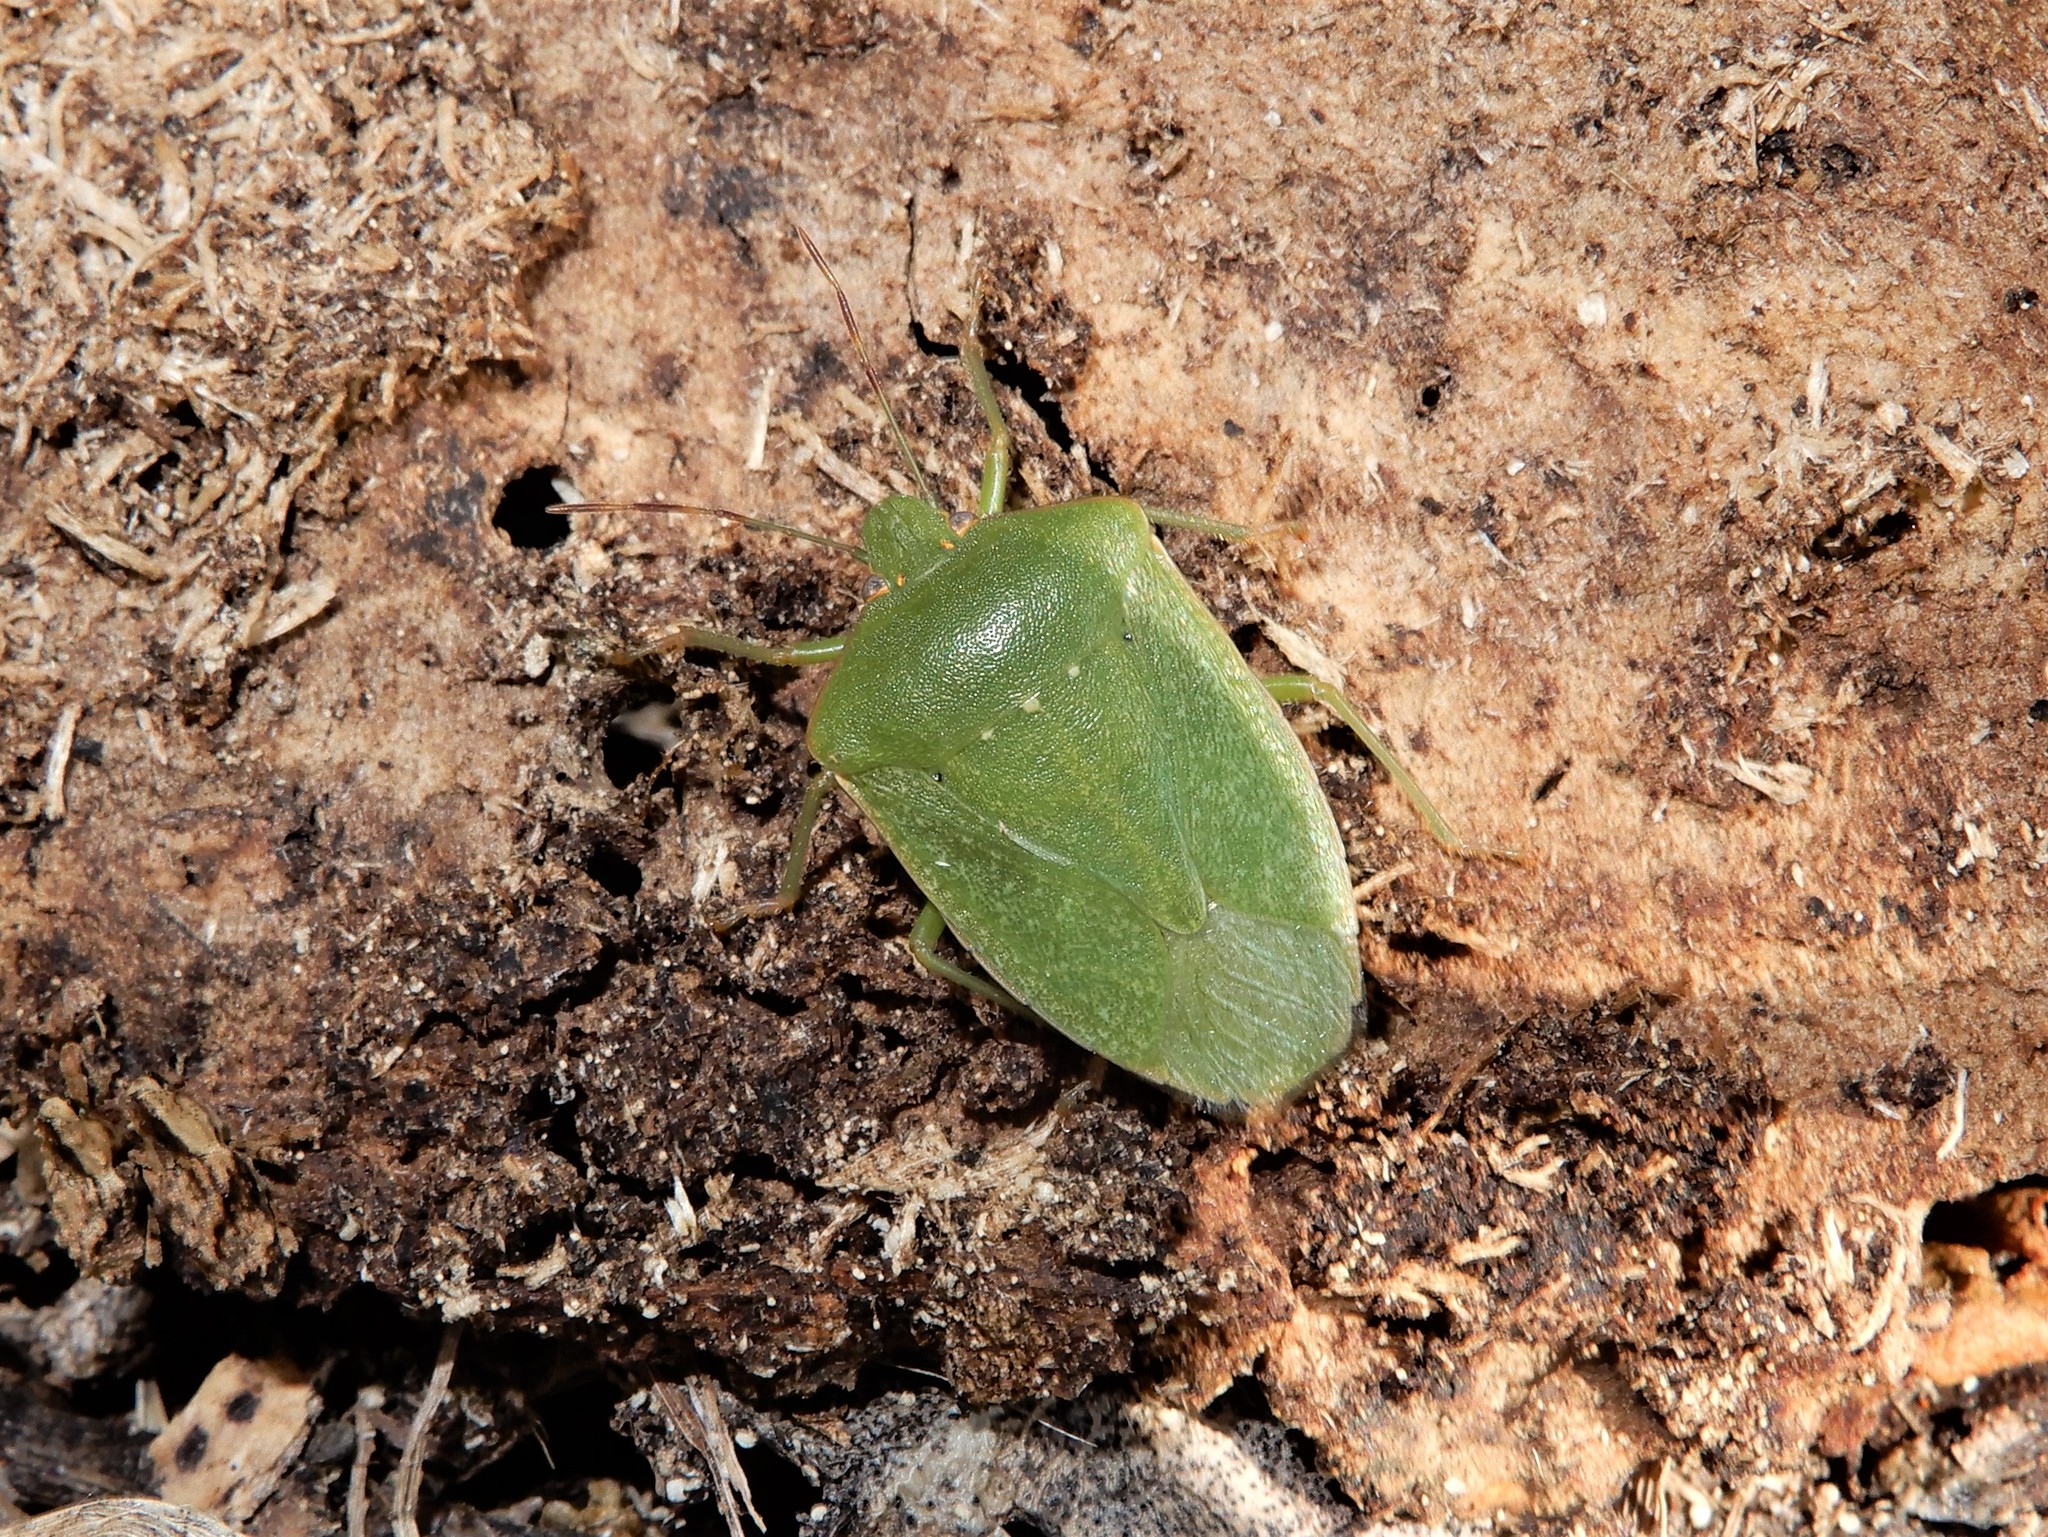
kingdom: Animalia
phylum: Arthropoda
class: Insecta
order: Hemiptera
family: Pentatomidae
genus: Nezara
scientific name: Nezara viridula
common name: Southern green stink bug
